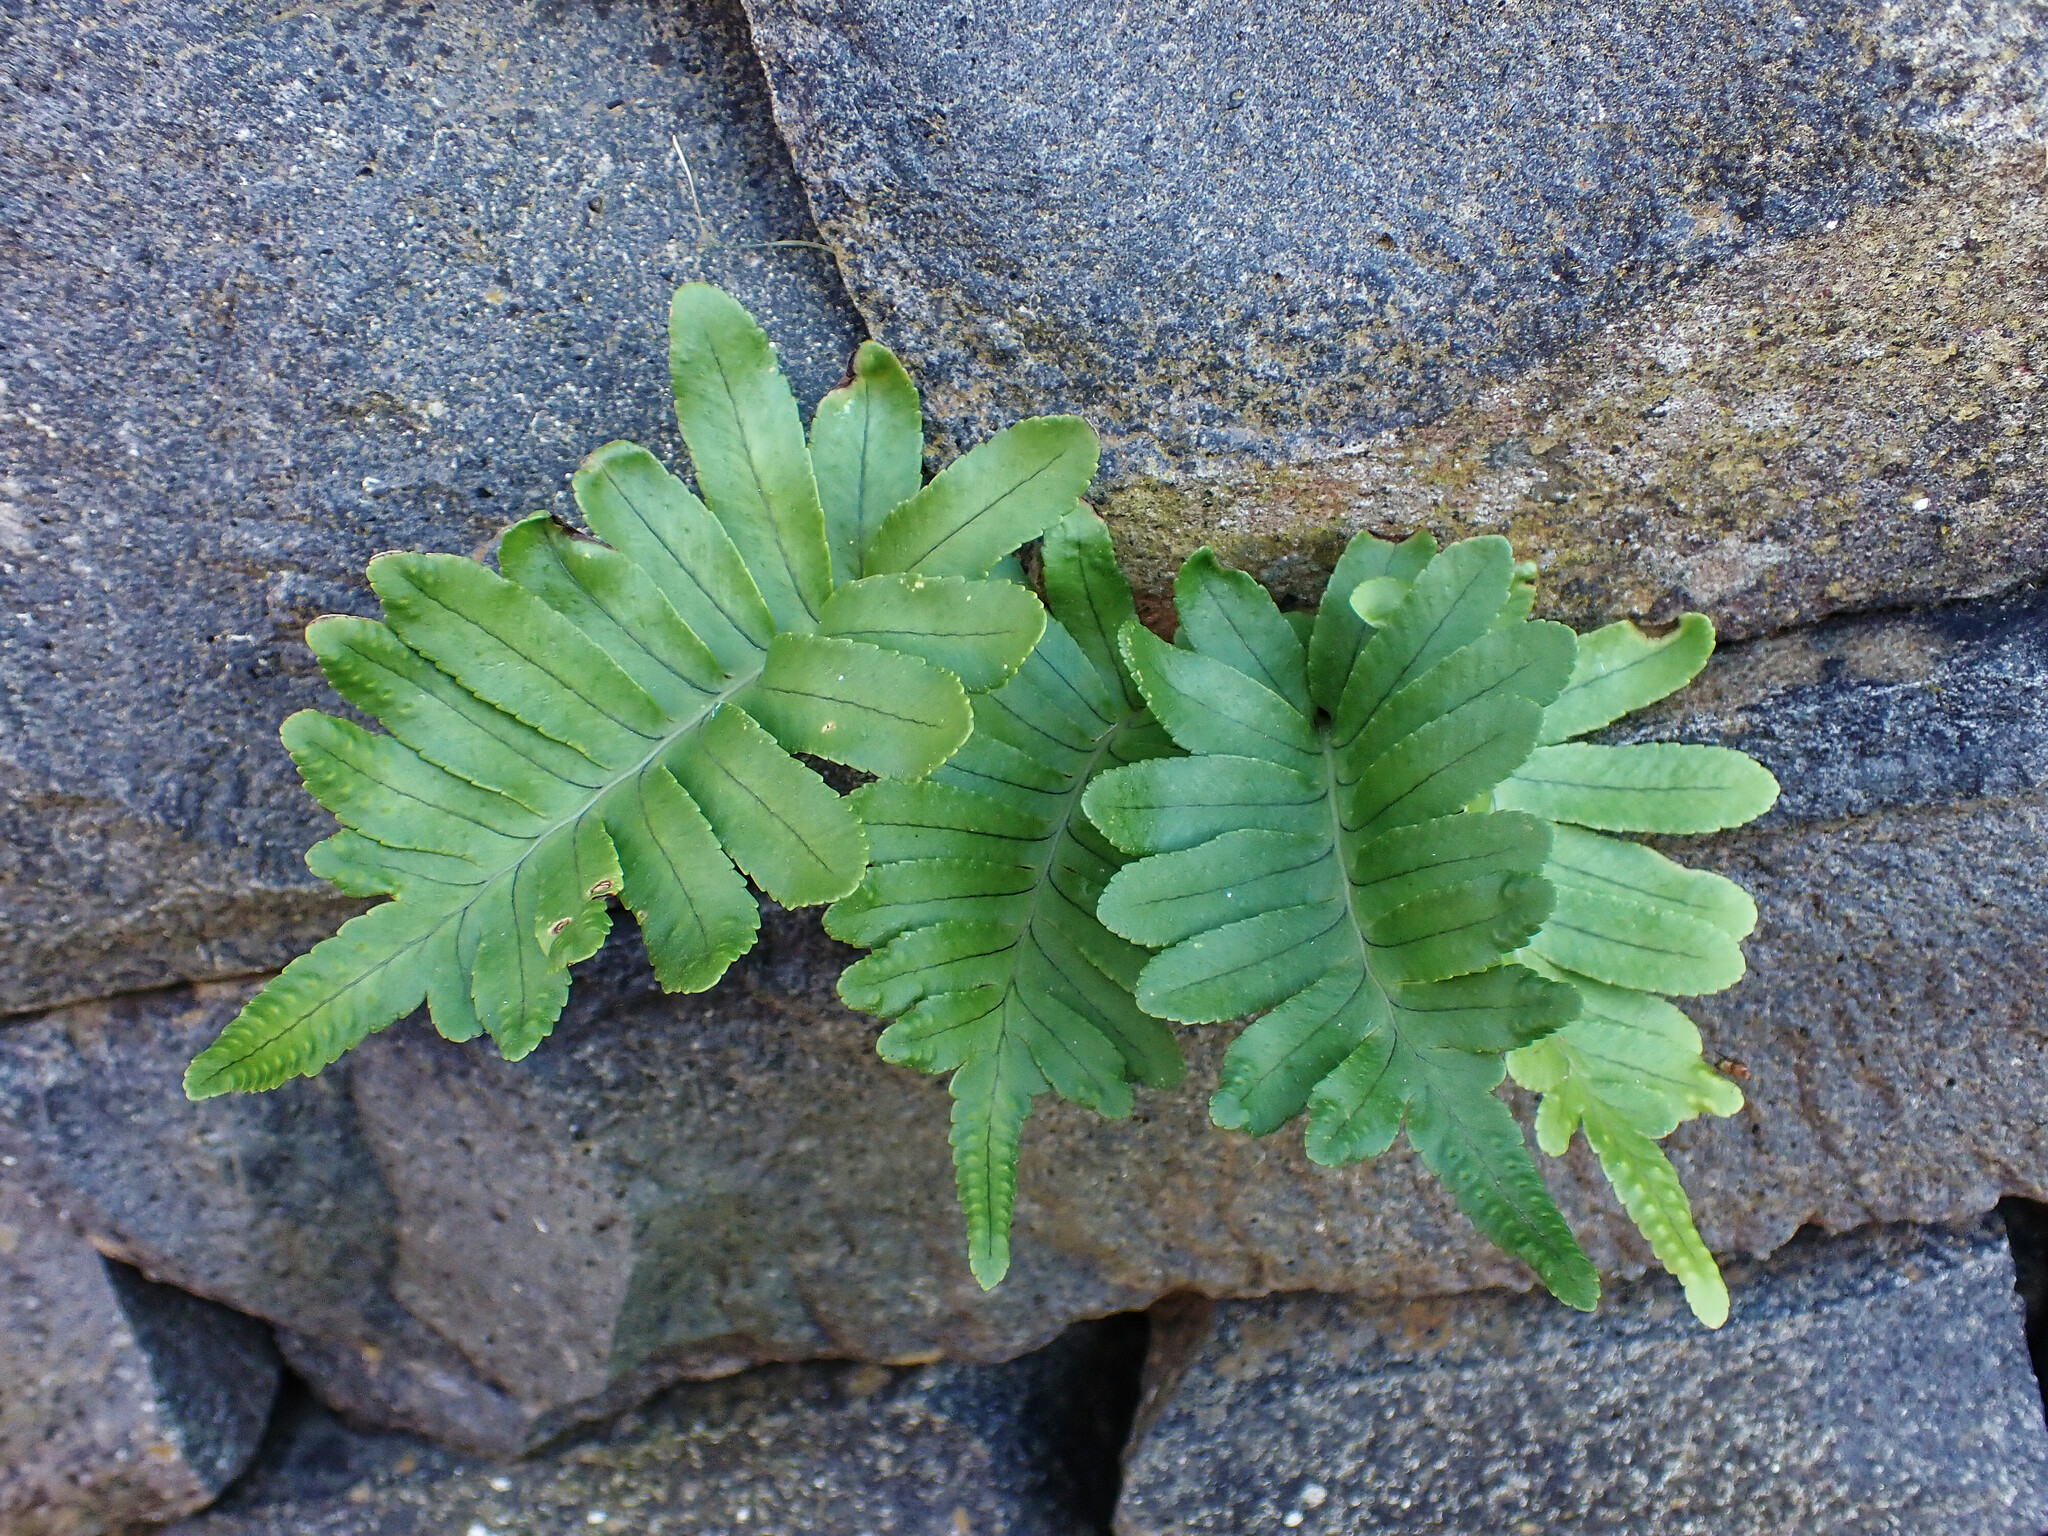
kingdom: Plantae
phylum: Tracheophyta
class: Polypodiopsida
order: Polypodiales
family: Polypodiaceae
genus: Polypodium
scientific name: Polypodium macaronesicum
